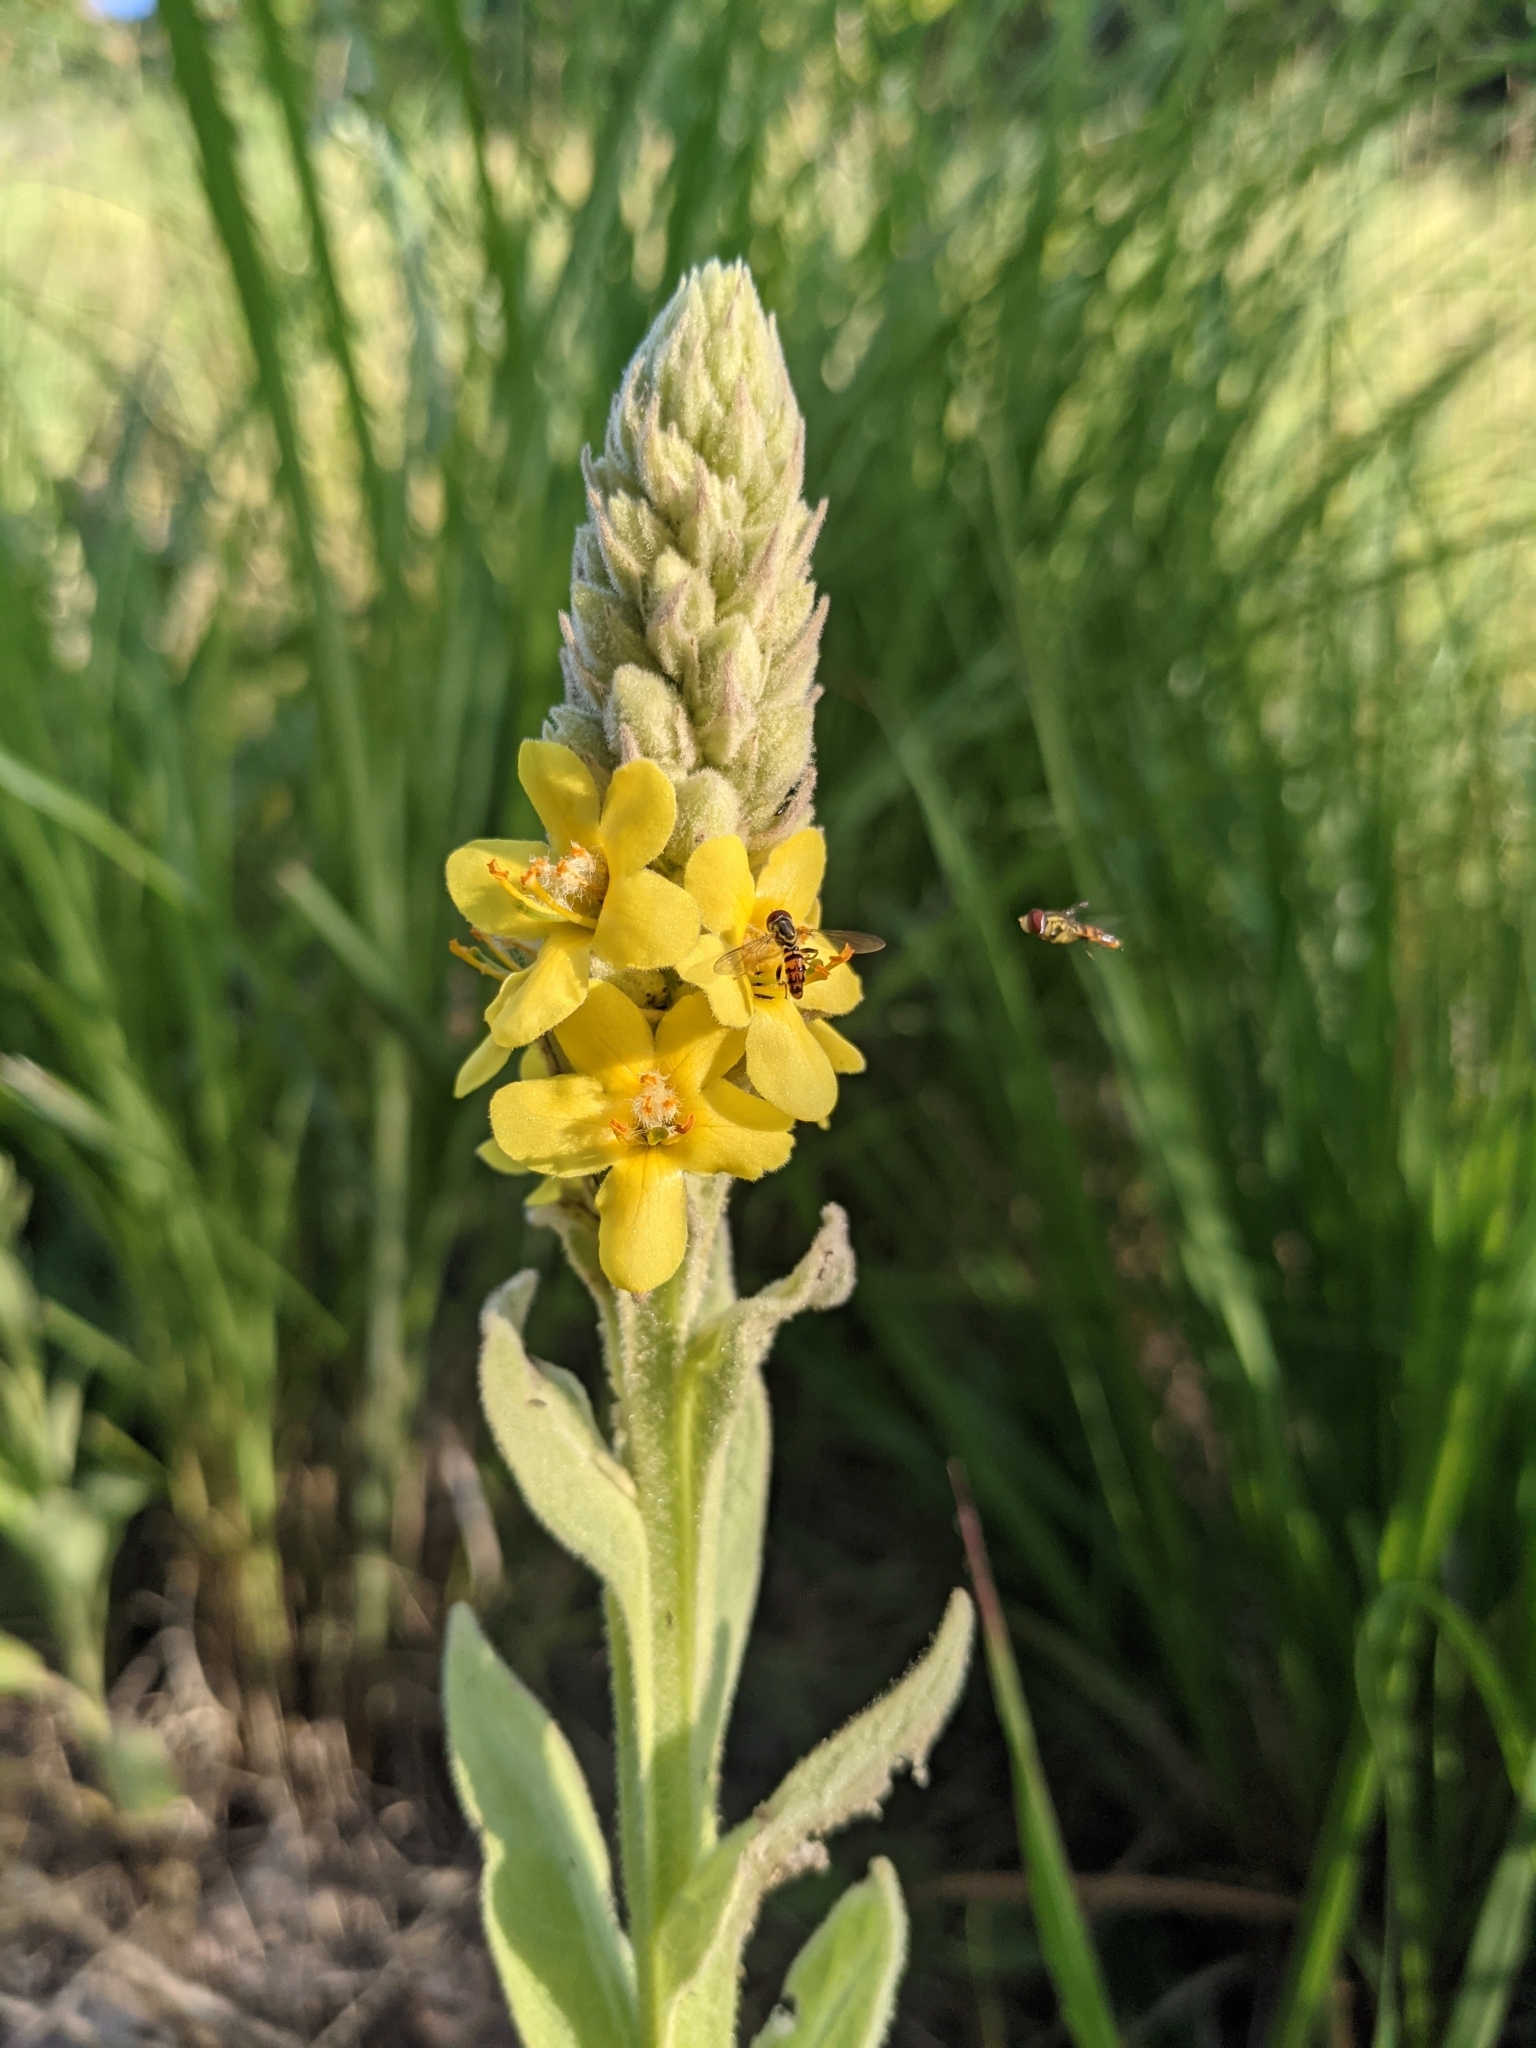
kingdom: Plantae
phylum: Tracheophyta
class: Magnoliopsida
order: Lamiales
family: Scrophulariaceae
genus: Verbascum
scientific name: Verbascum thapsus
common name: Common mullein
